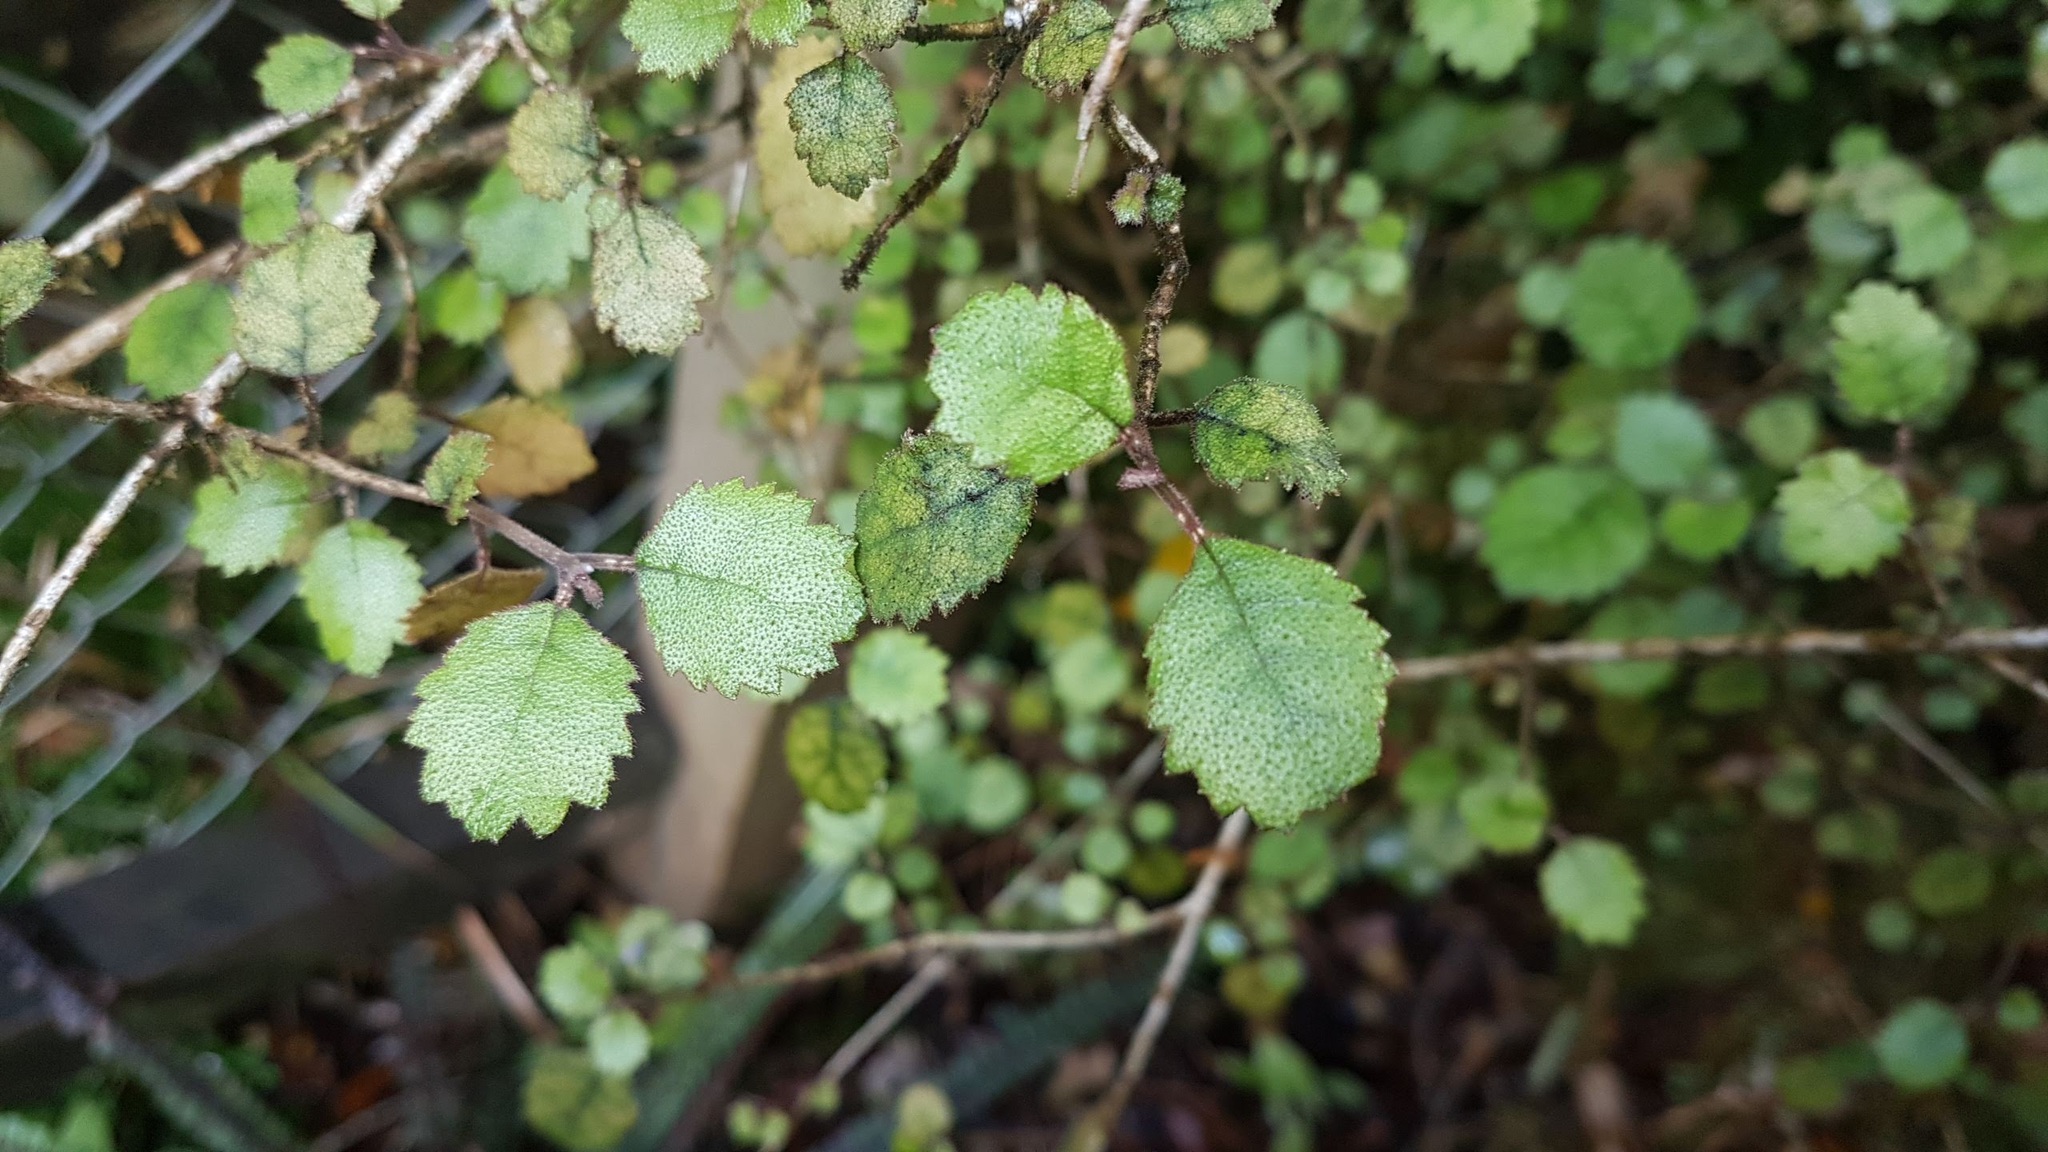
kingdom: Plantae
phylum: Tracheophyta
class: Magnoliopsida
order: Lamiales
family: Gesneriaceae
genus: Rhabdothamnus
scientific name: Rhabdothamnus solandri
